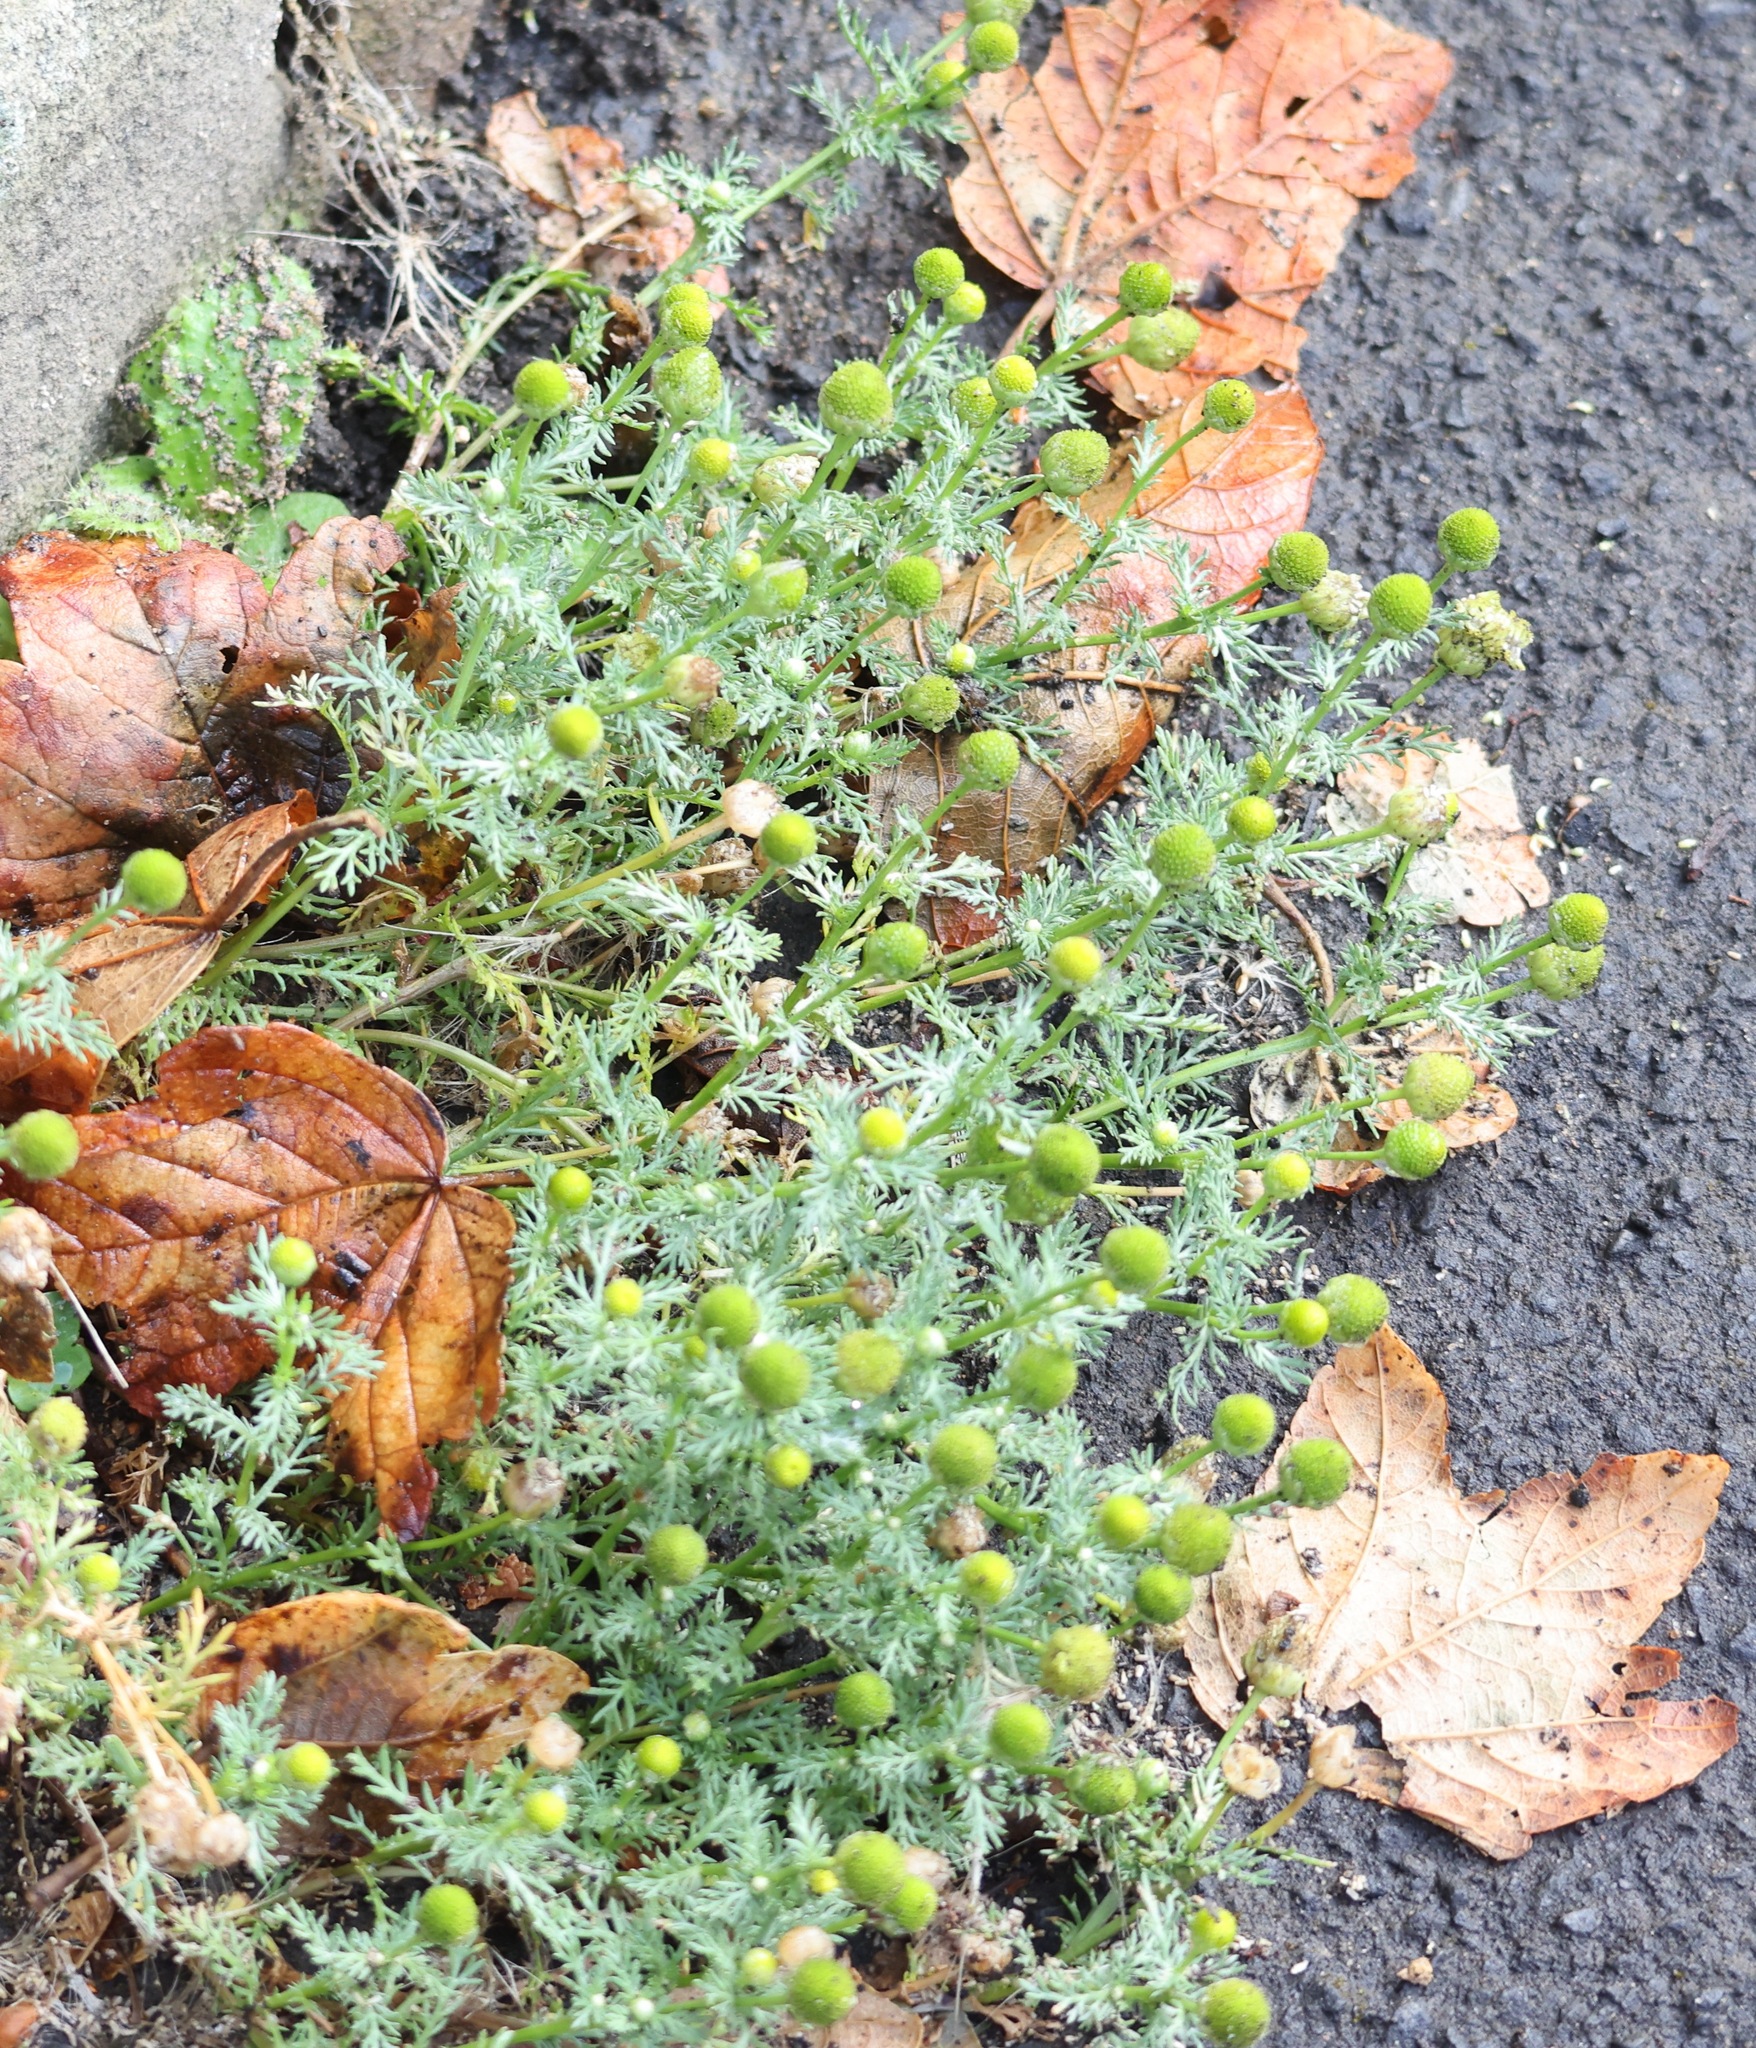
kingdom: Plantae
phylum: Tracheophyta
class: Magnoliopsida
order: Asterales
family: Asteraceae
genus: Matricaria
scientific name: Matricaria discoidea
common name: Disc mayweed
